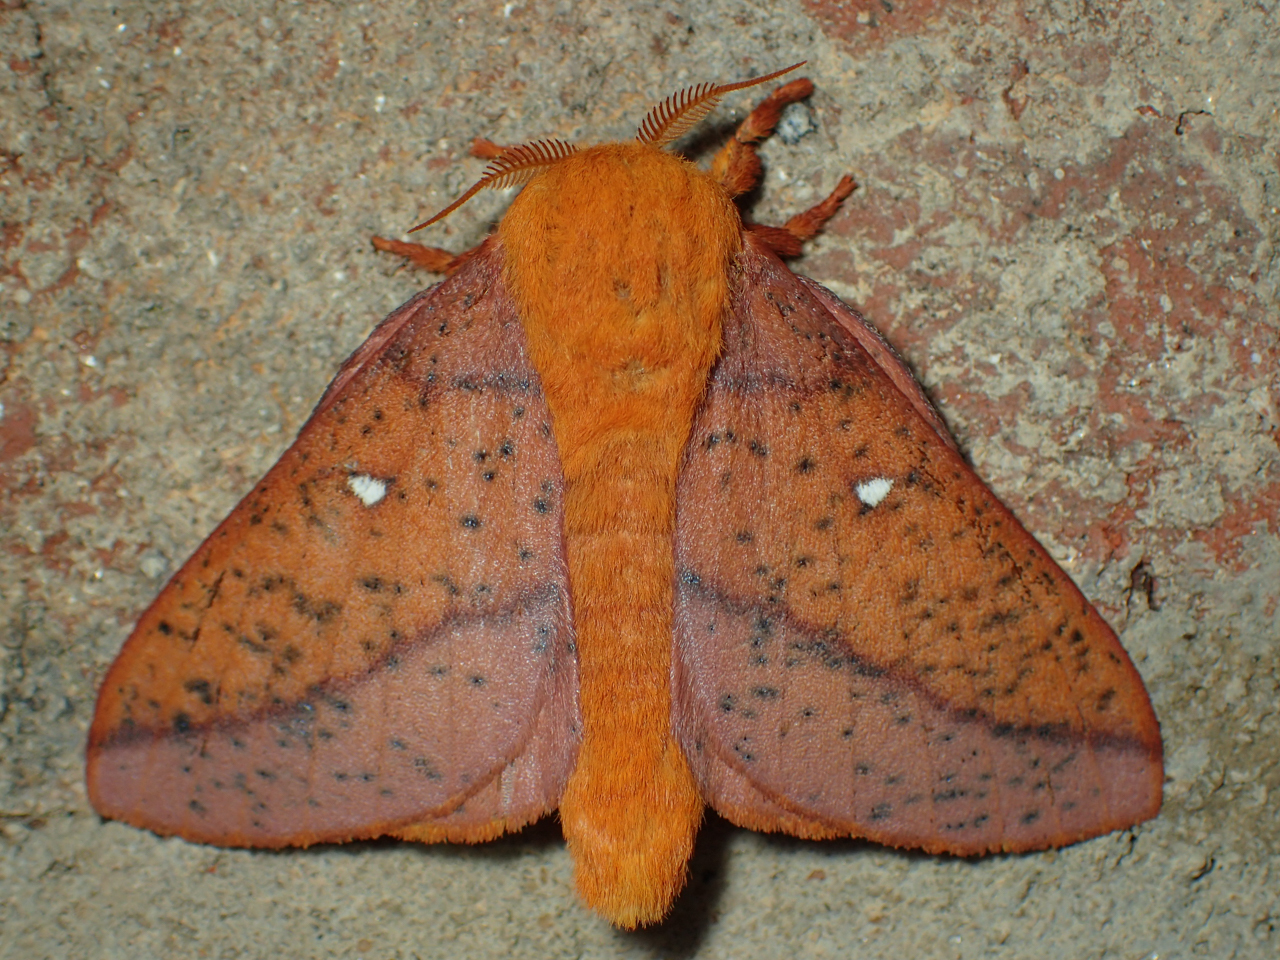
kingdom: Animalia
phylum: Arthropoda
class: Insecta
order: Lepidoptera
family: Saturniidae
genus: Anisota
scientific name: Anisota stigma
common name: Spiny oakworm moth
